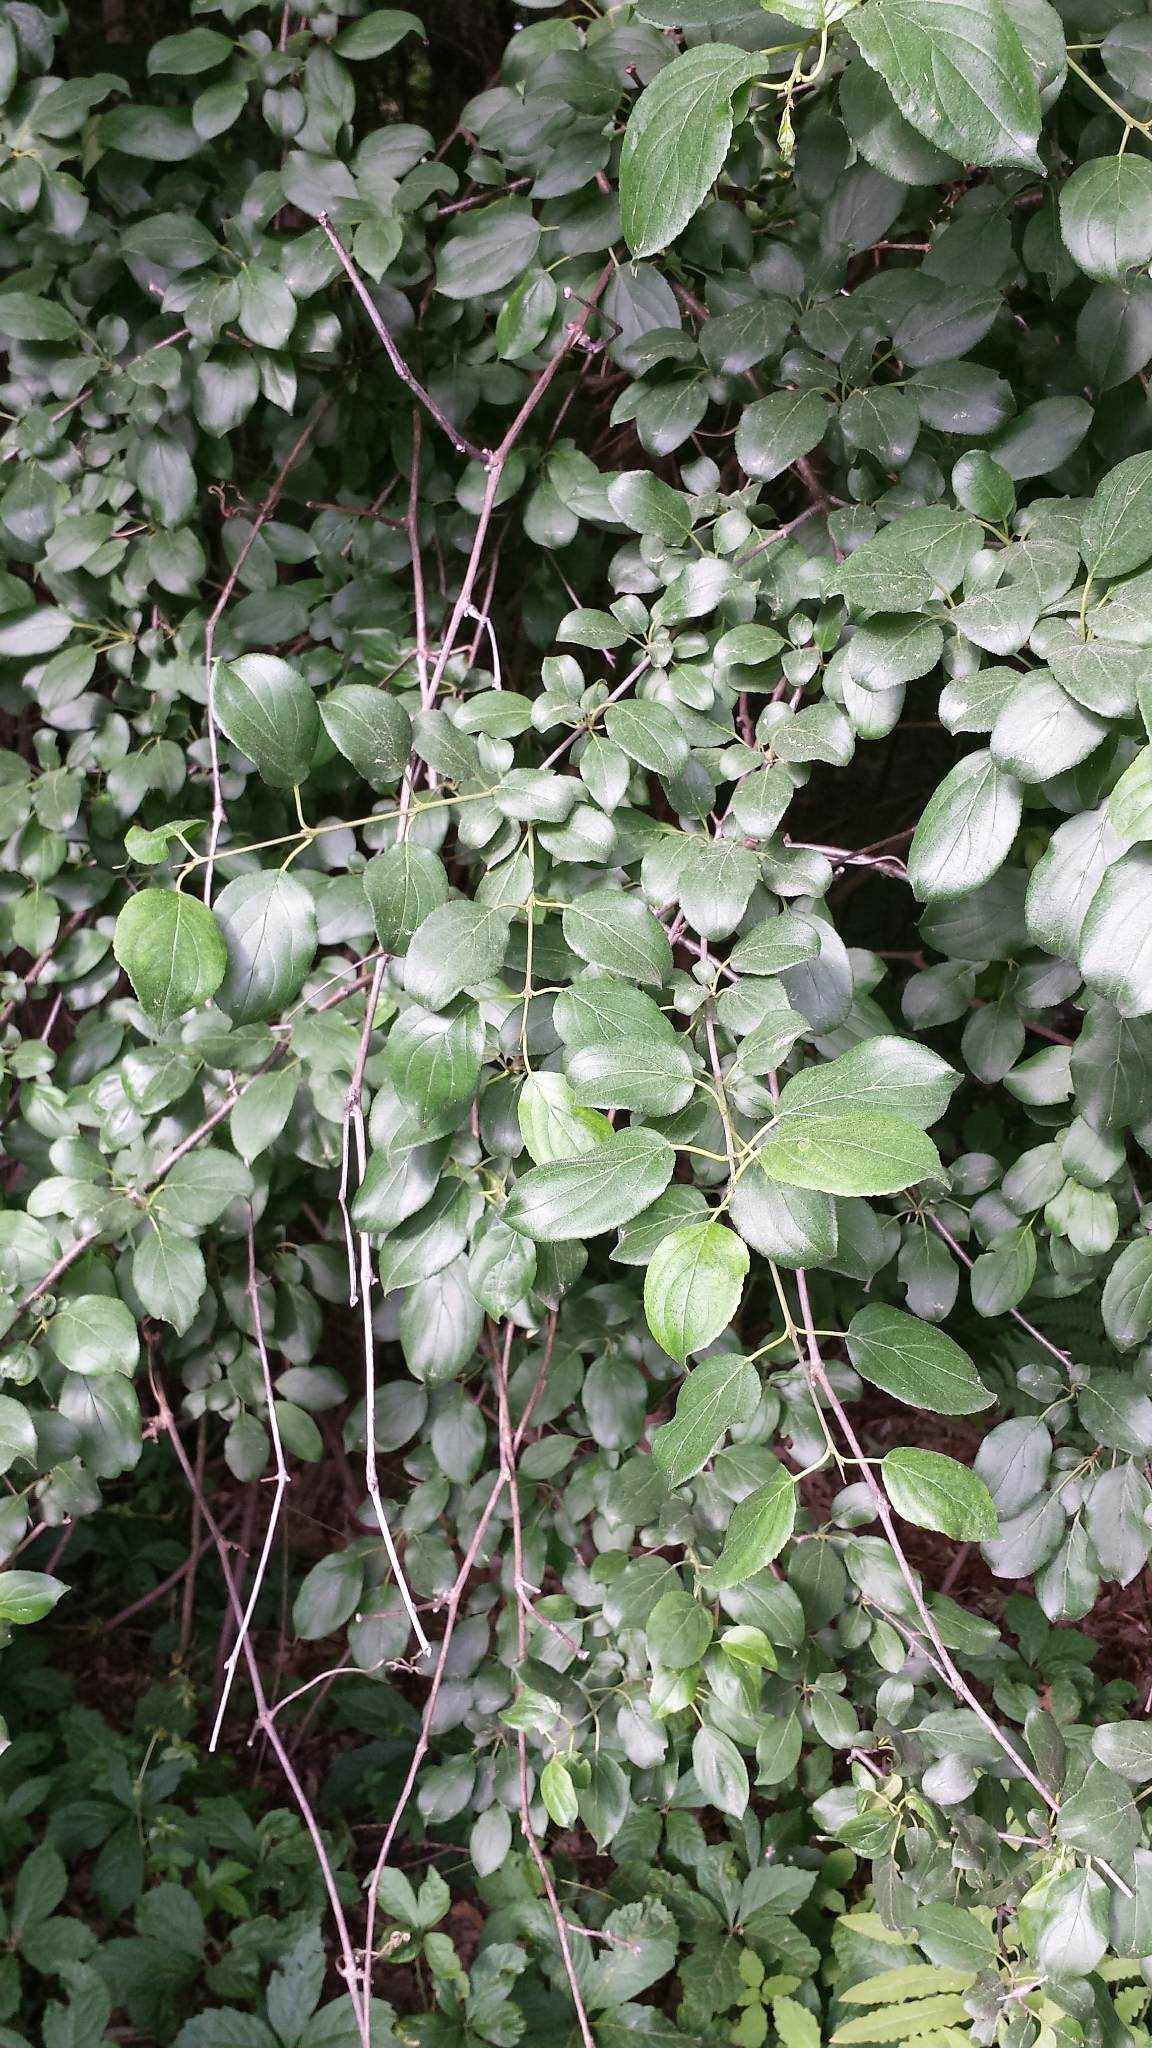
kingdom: Plantae
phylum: Tracheophyta
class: Magnoliopsida
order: Rosales
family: Rhamnaceae
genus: Rhamnus
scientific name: Rhamnus cathartica
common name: Common buckthorn
